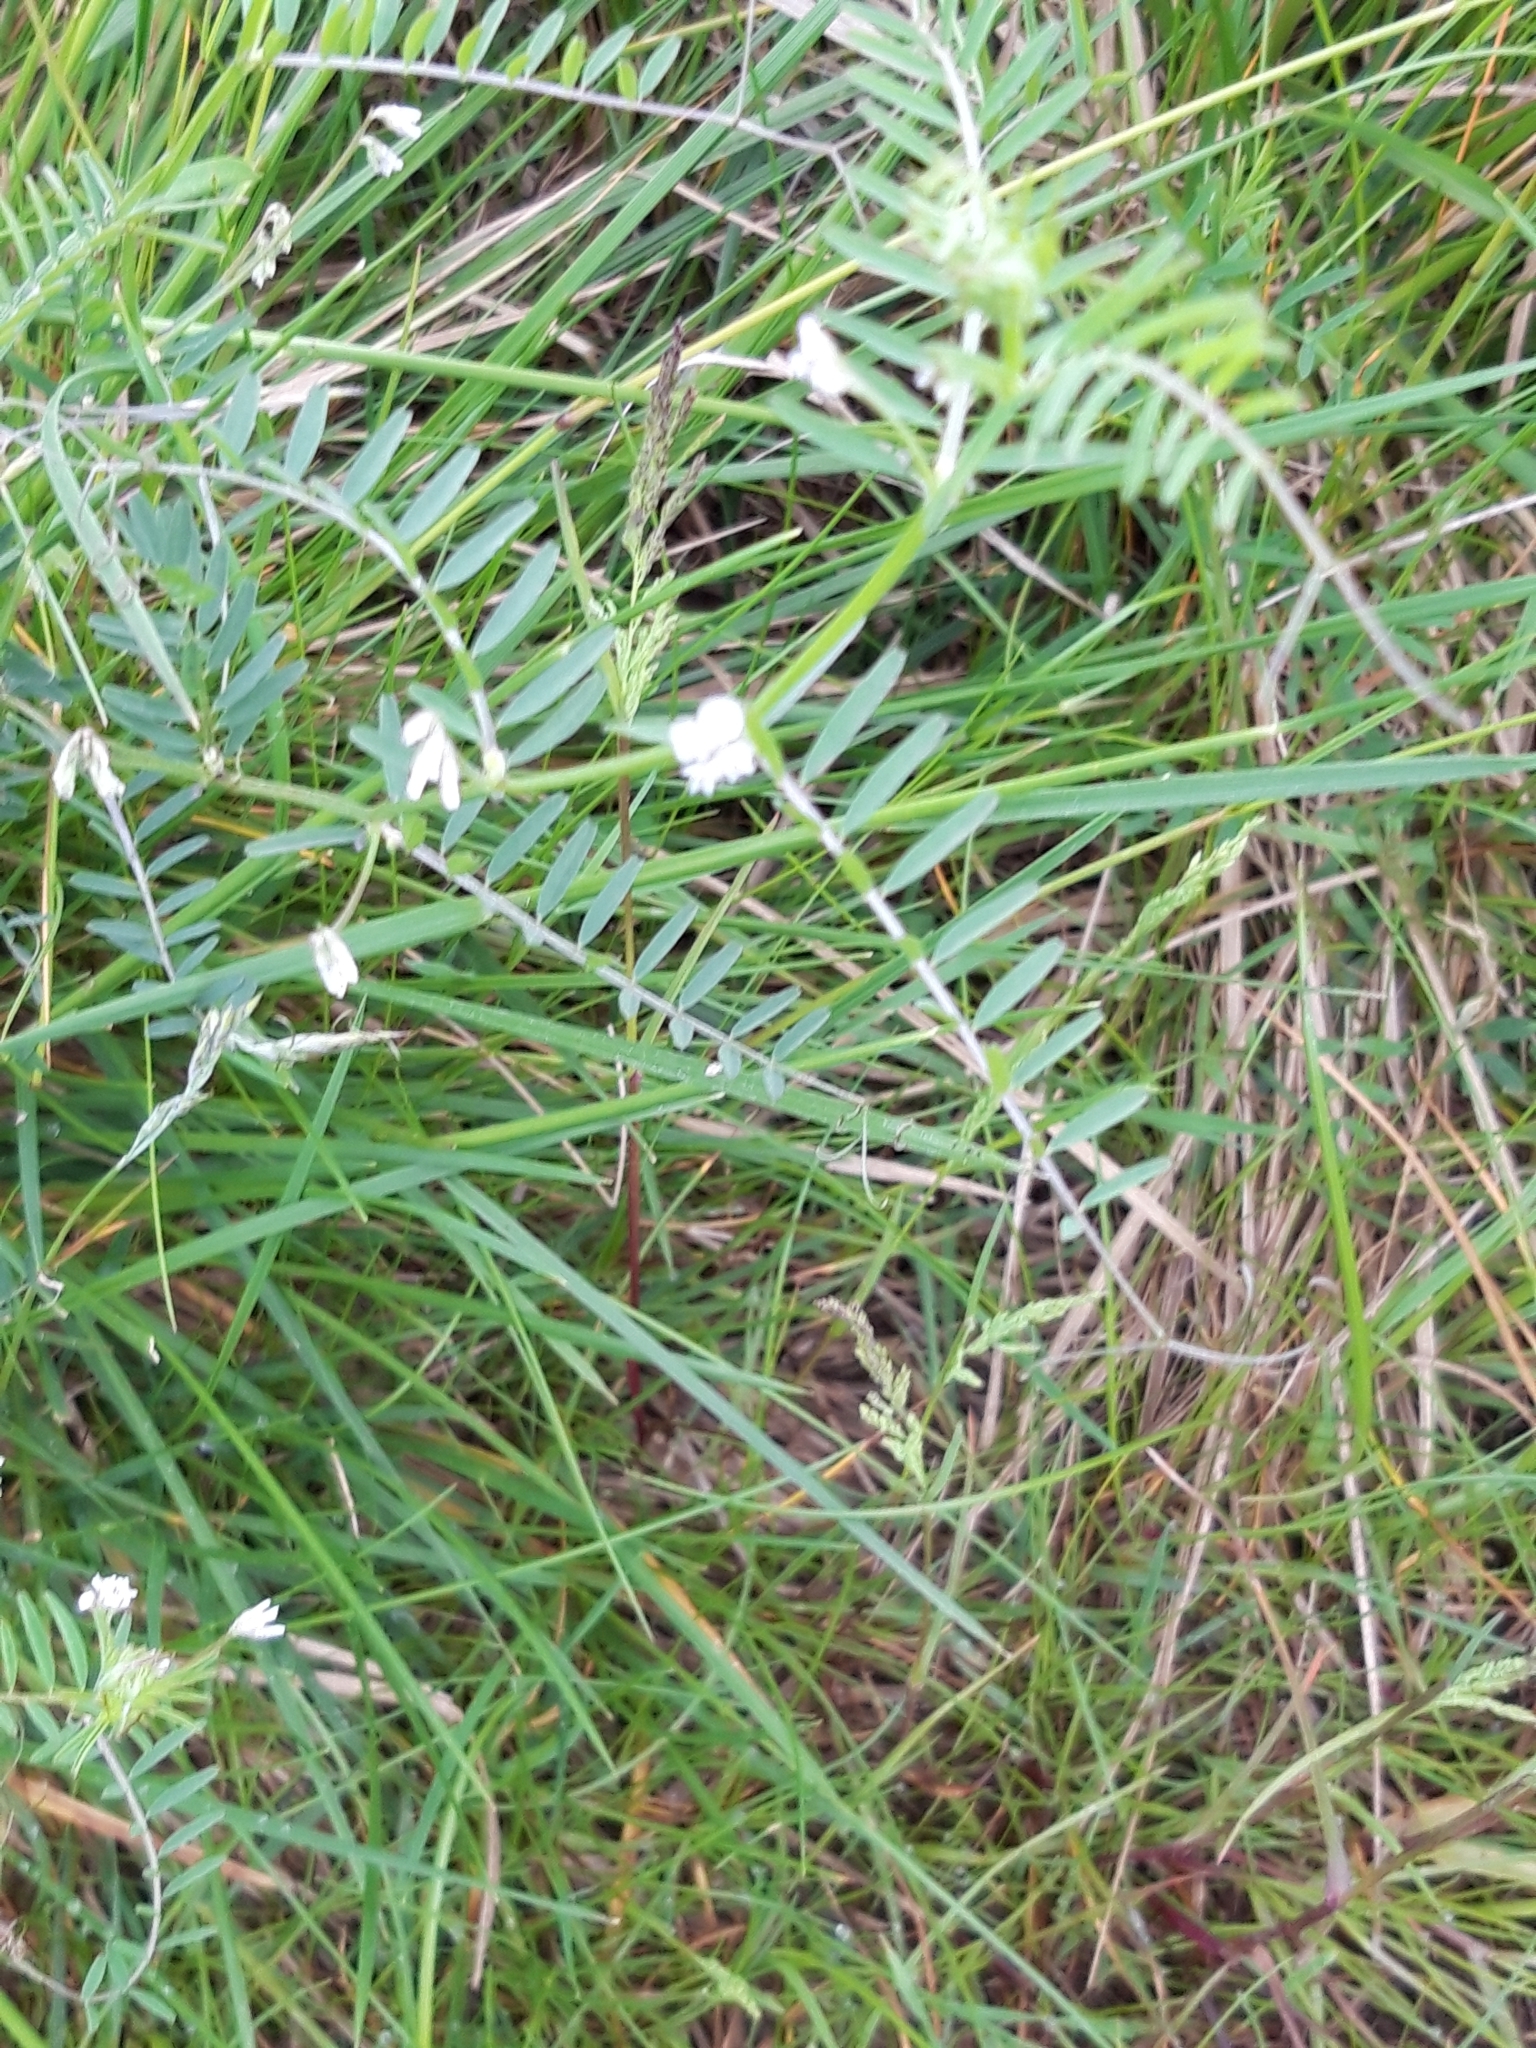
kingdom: Plantae
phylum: Tracheophyta
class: Magnoliopsida
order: Fabales
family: Fabaceae
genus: Vicia
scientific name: Vicia hirsuta
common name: Tiny vetch
